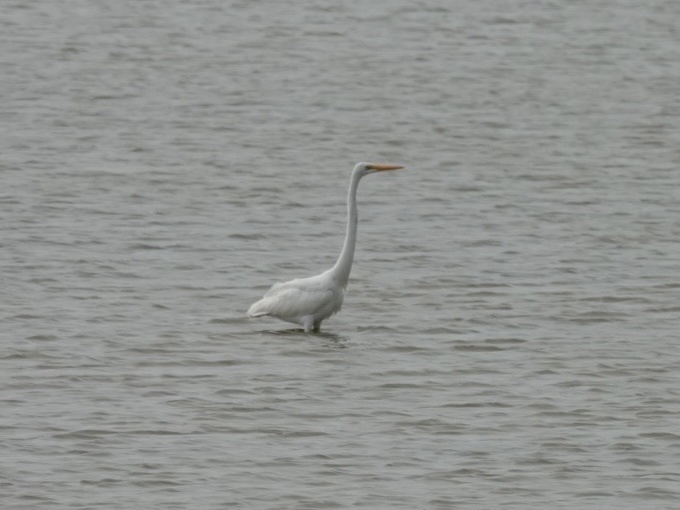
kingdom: Animalia
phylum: Chordata
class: Aves
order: Pelecaniformes
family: Ardeidae
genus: Ardea
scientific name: Ardea alba
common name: Great egret
